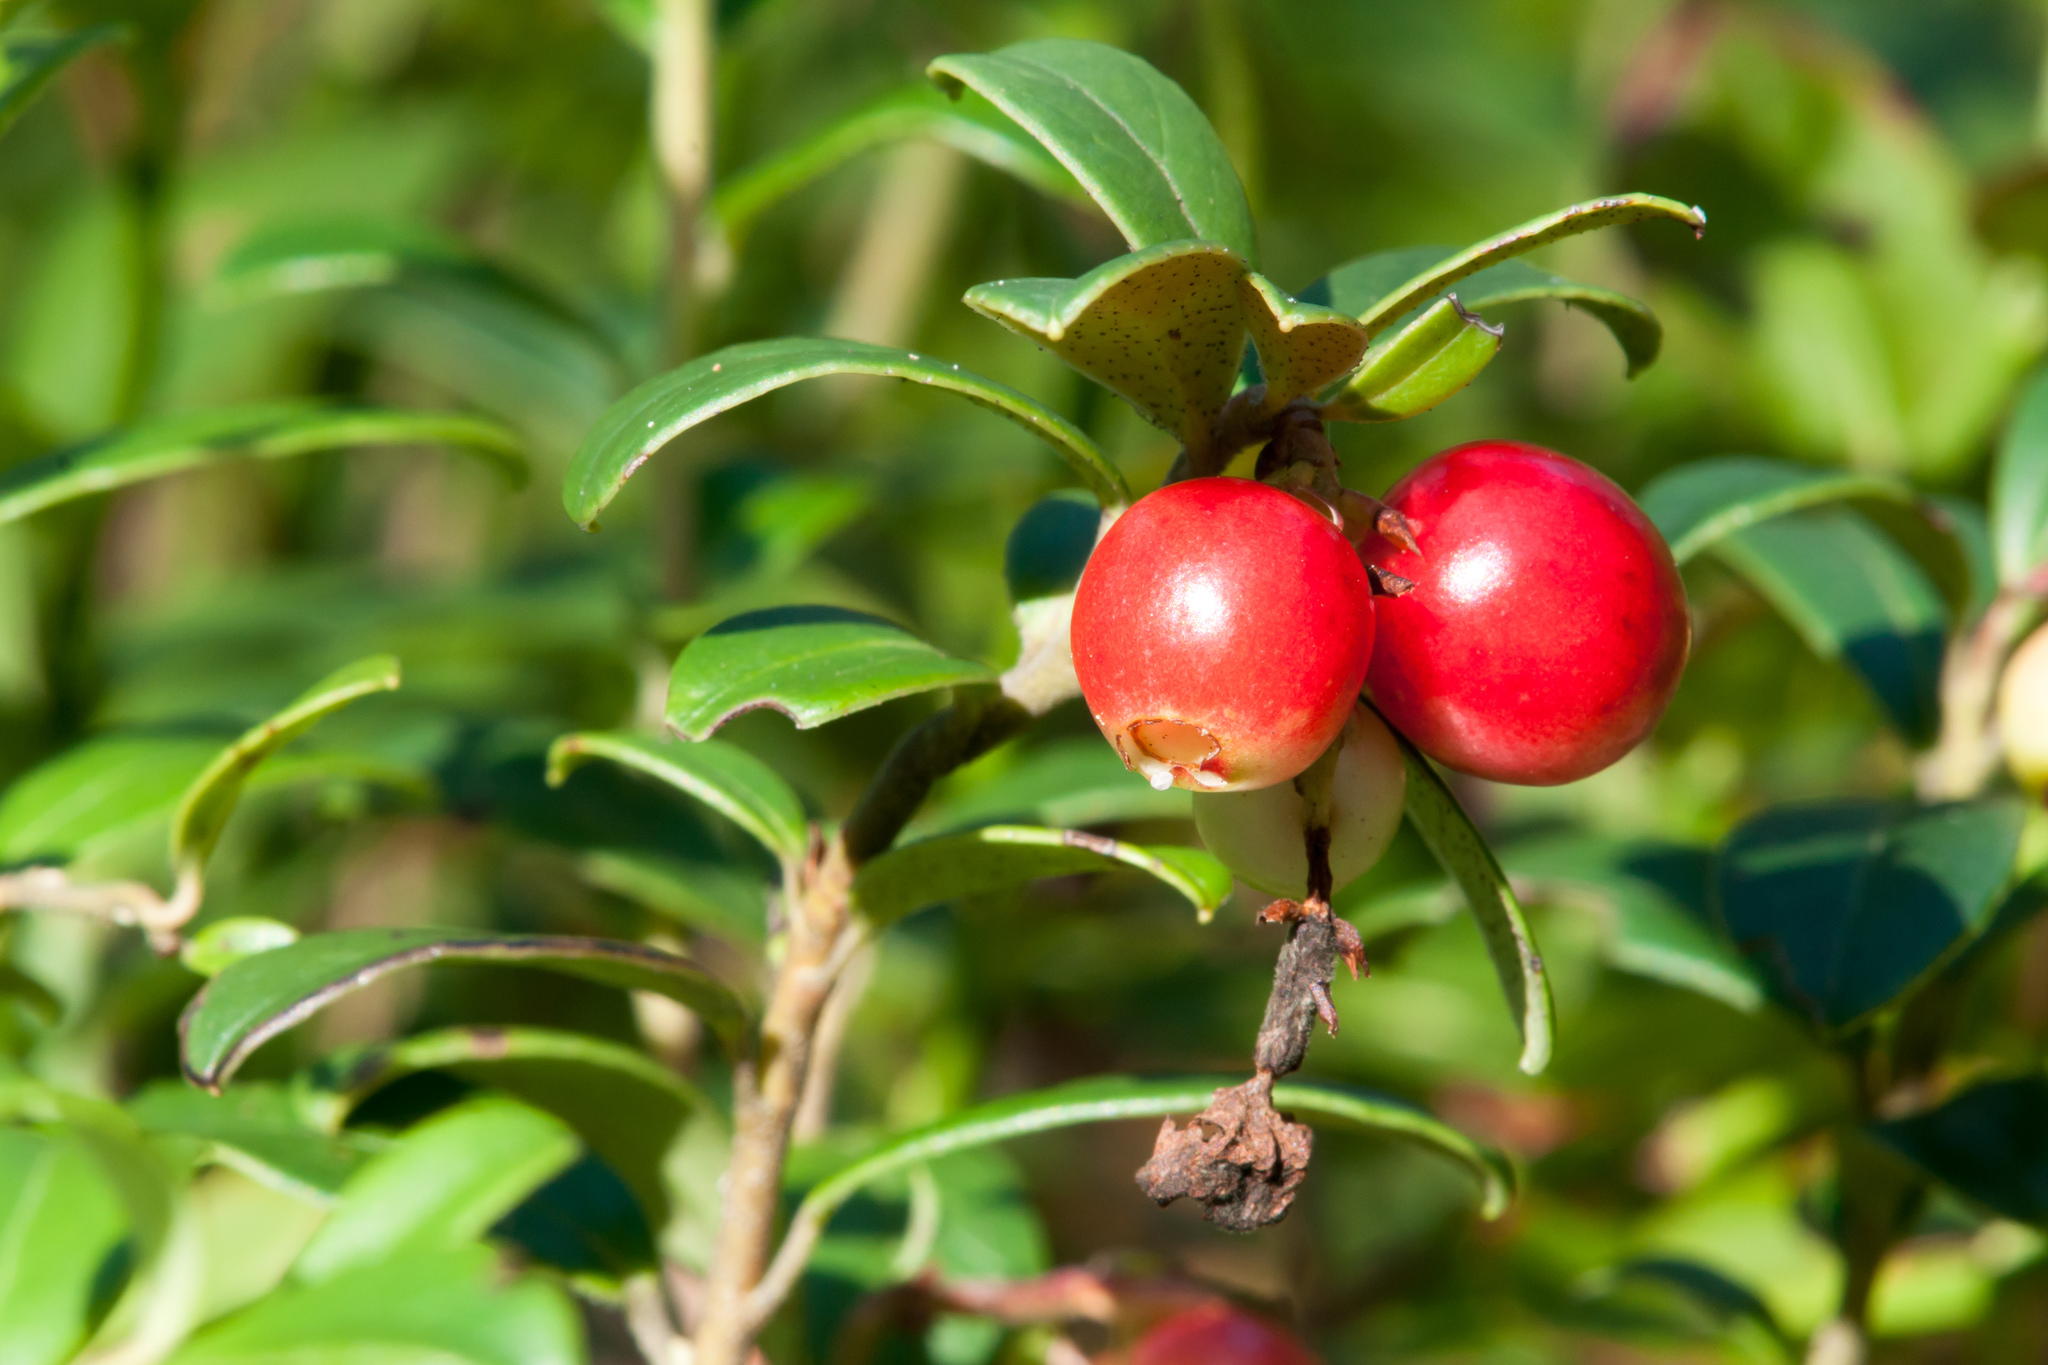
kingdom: Plantae
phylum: Tracheophyta
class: Magnoliopsida
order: Ericales
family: Ericaceae
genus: Vaccinium
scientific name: Vaccinium vitis-idaea
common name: Cowberry
